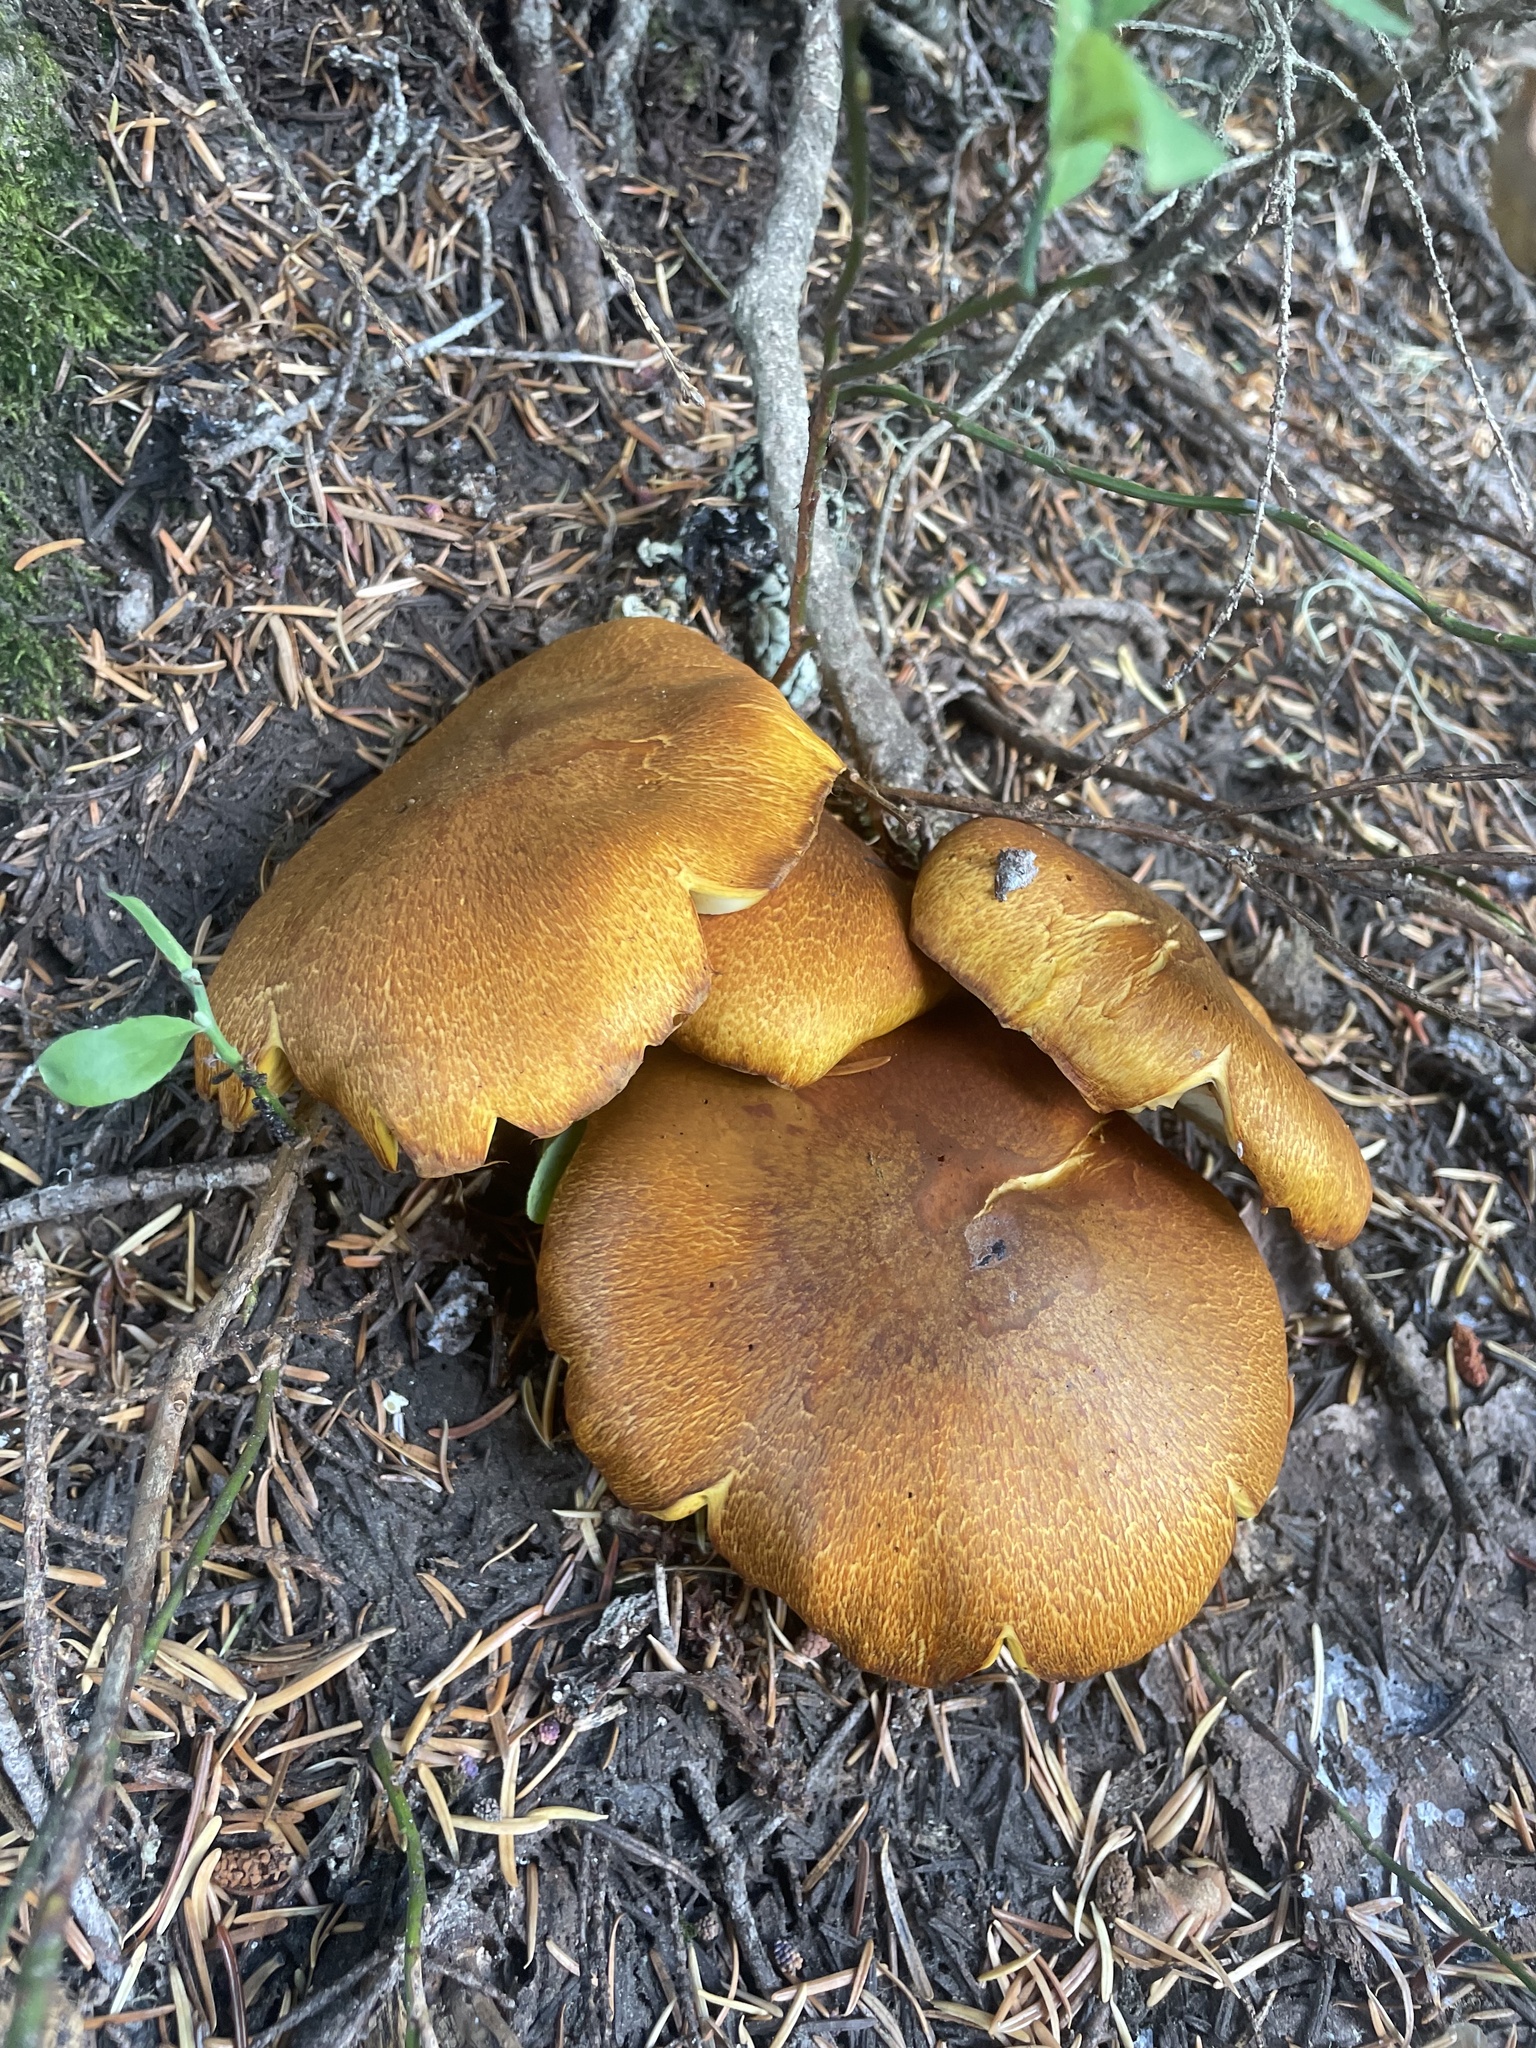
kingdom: Fungi
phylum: Basidiomycota
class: Agaricomycetes
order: Agaricales
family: Hymenogastraceae
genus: Gymnopilus
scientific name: Gymnopilus ventricosus
